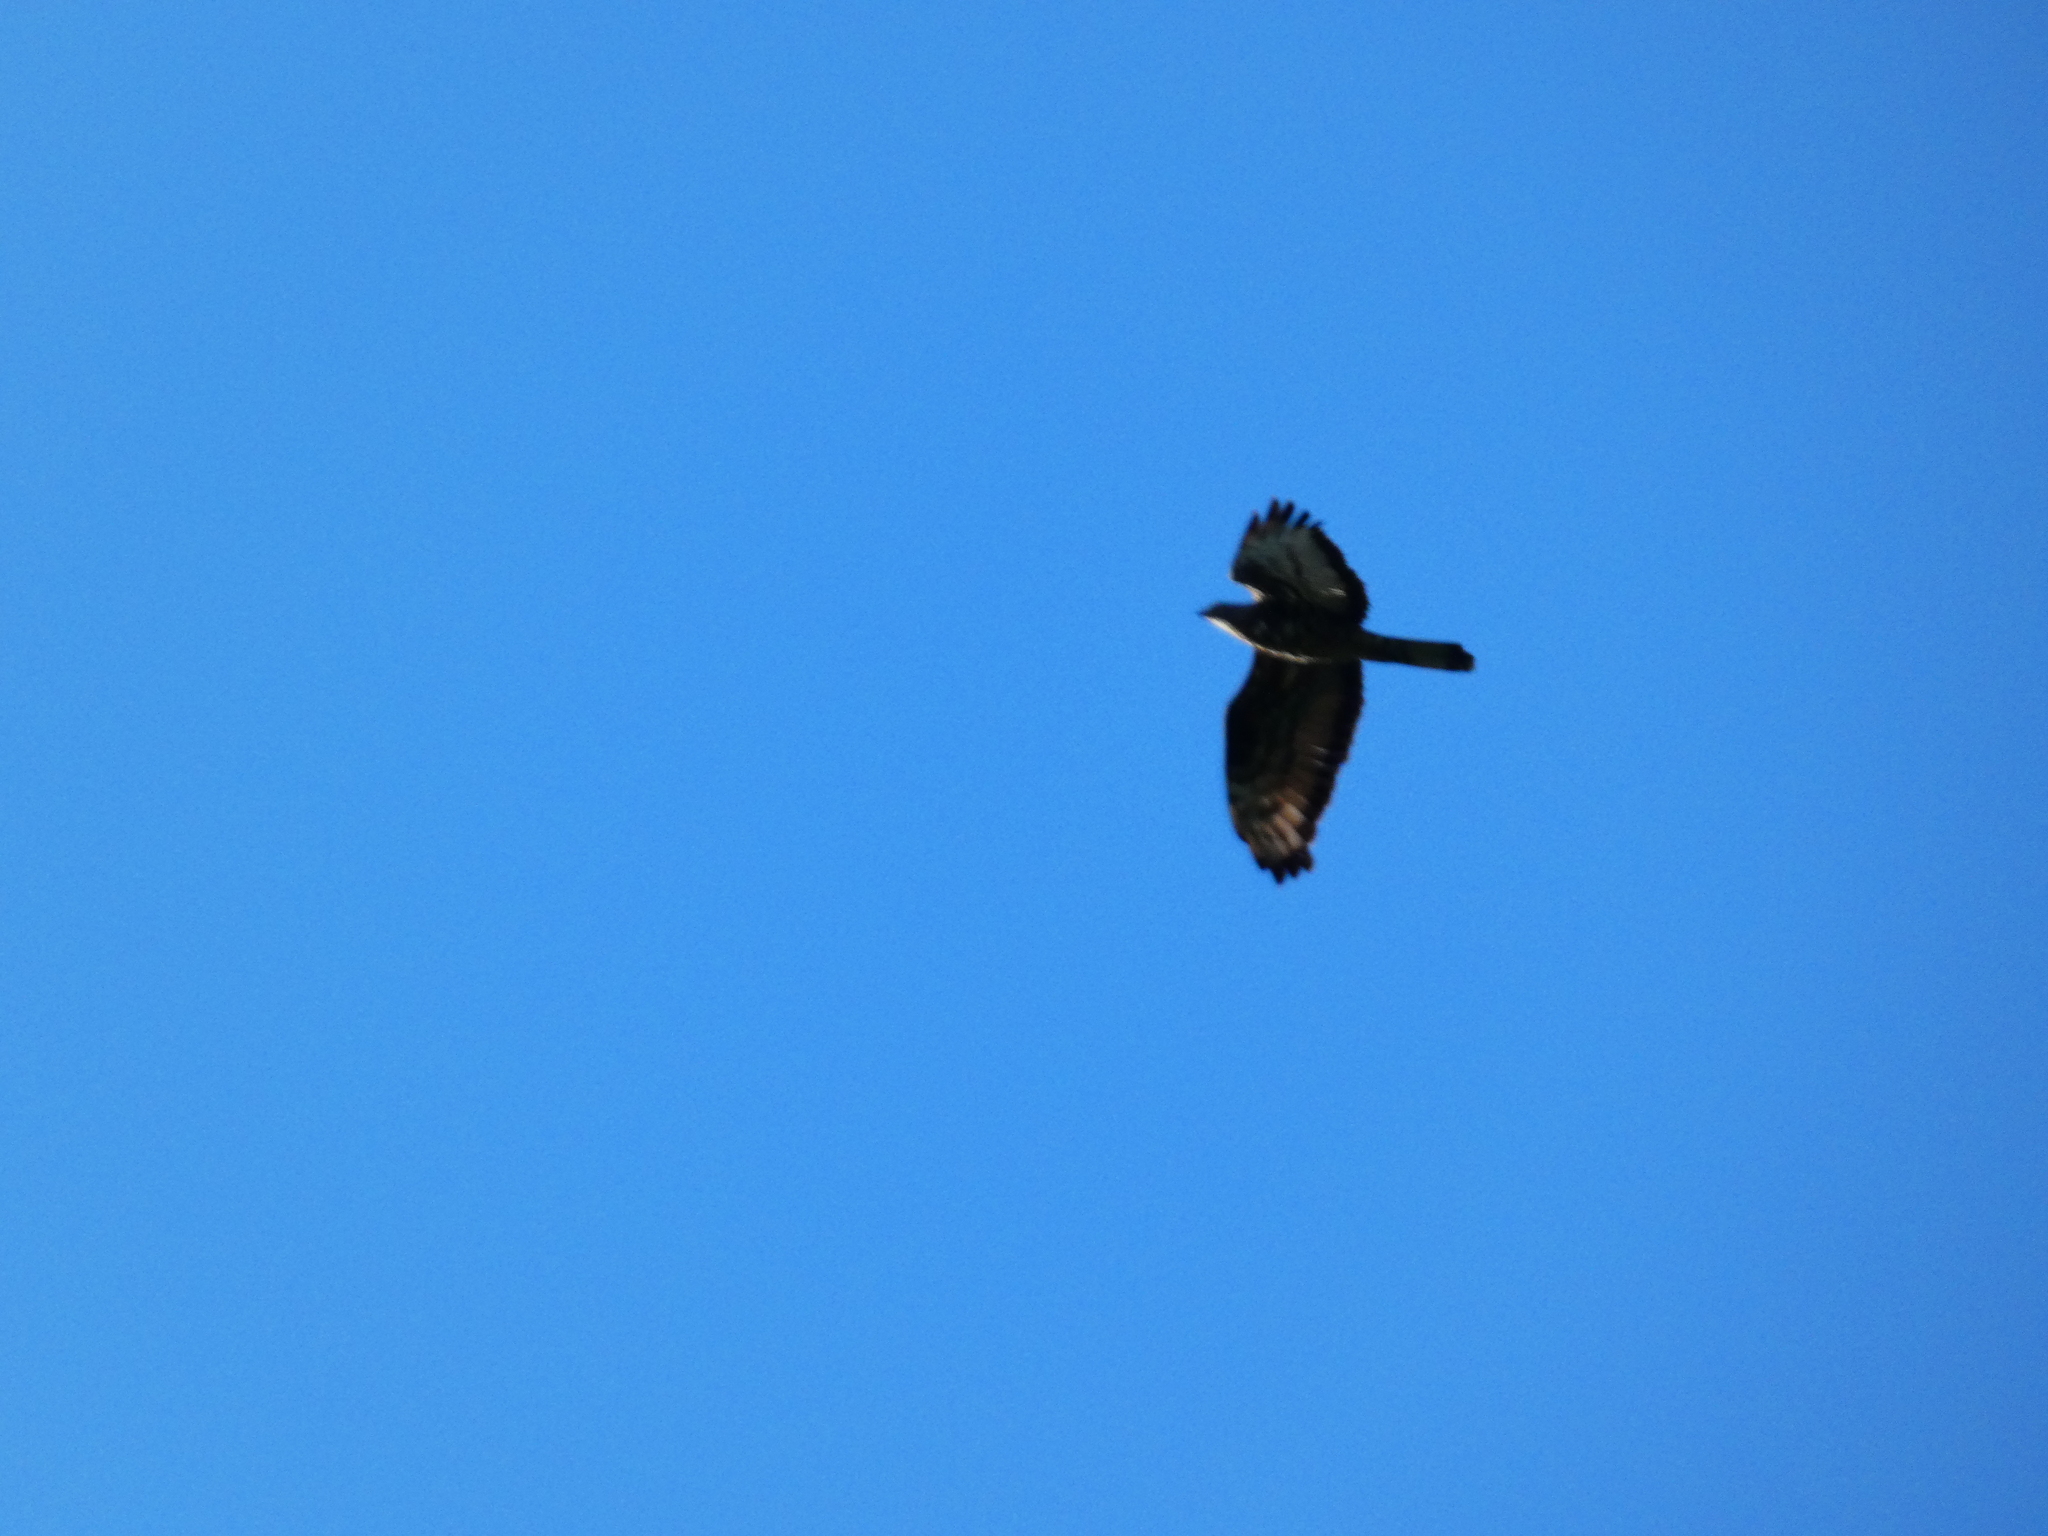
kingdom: Animalia
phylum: Chordata
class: Aves
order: Accipitriformes
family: Accipitridae
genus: Pernis
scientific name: Pernis apivorus
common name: European honey buzzard
